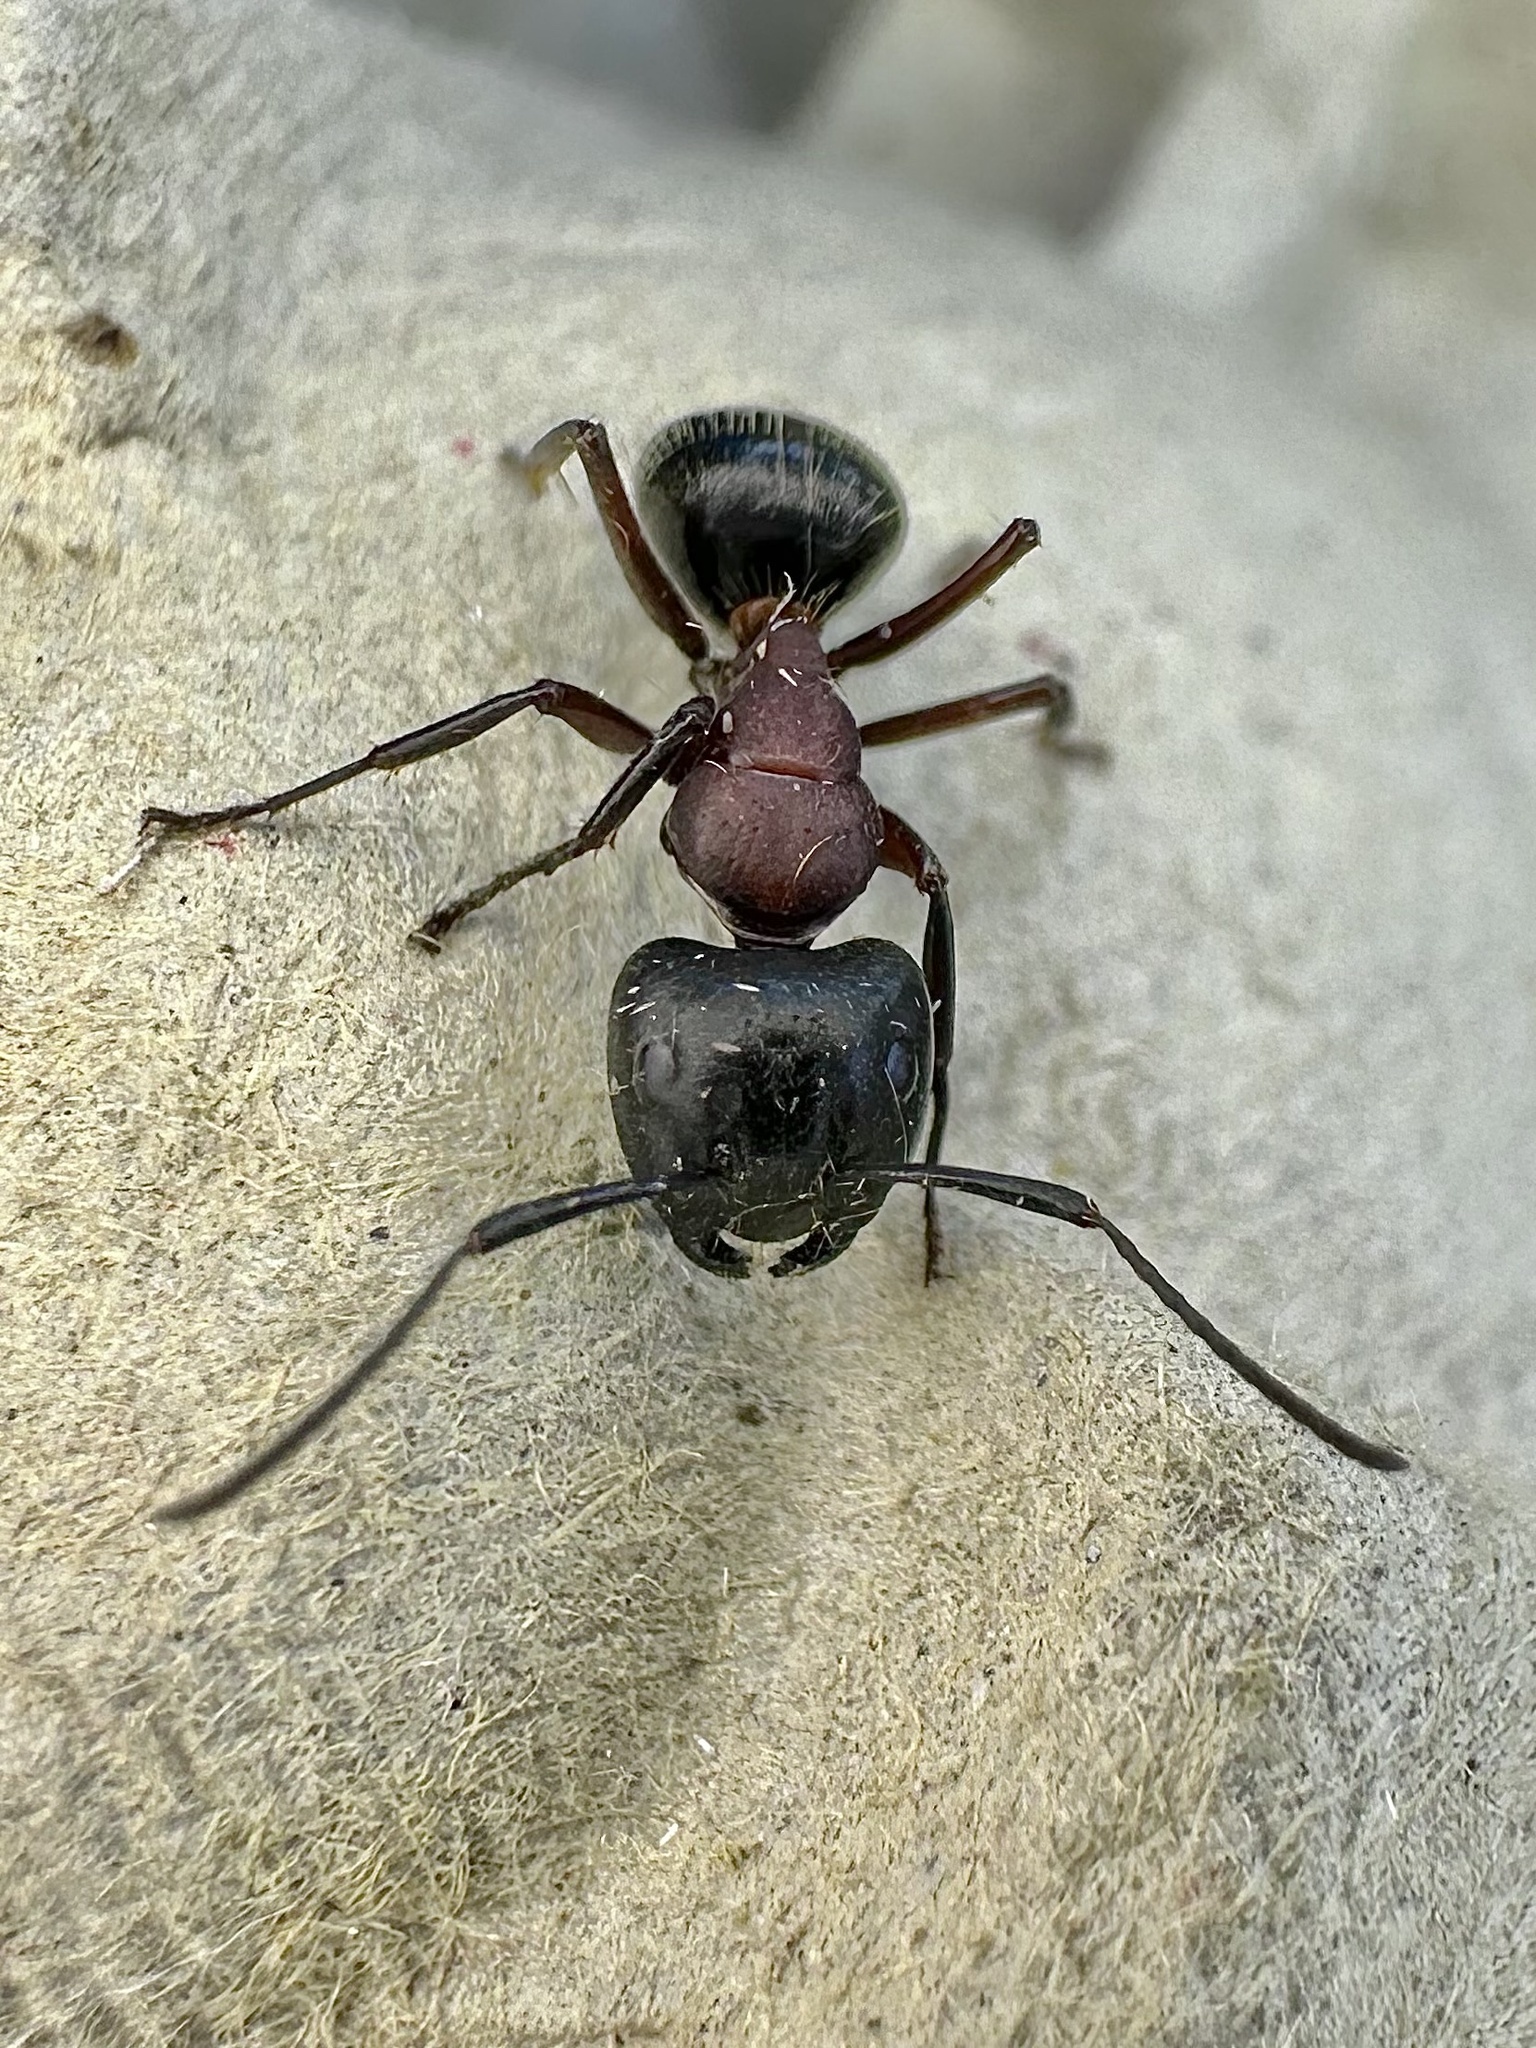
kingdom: Animalia
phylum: Arthropoda
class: Insecta
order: Hymenoptera
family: Formicidae
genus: Camponotus
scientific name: Camponotus novaeboracensis
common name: New york carpenter ant
